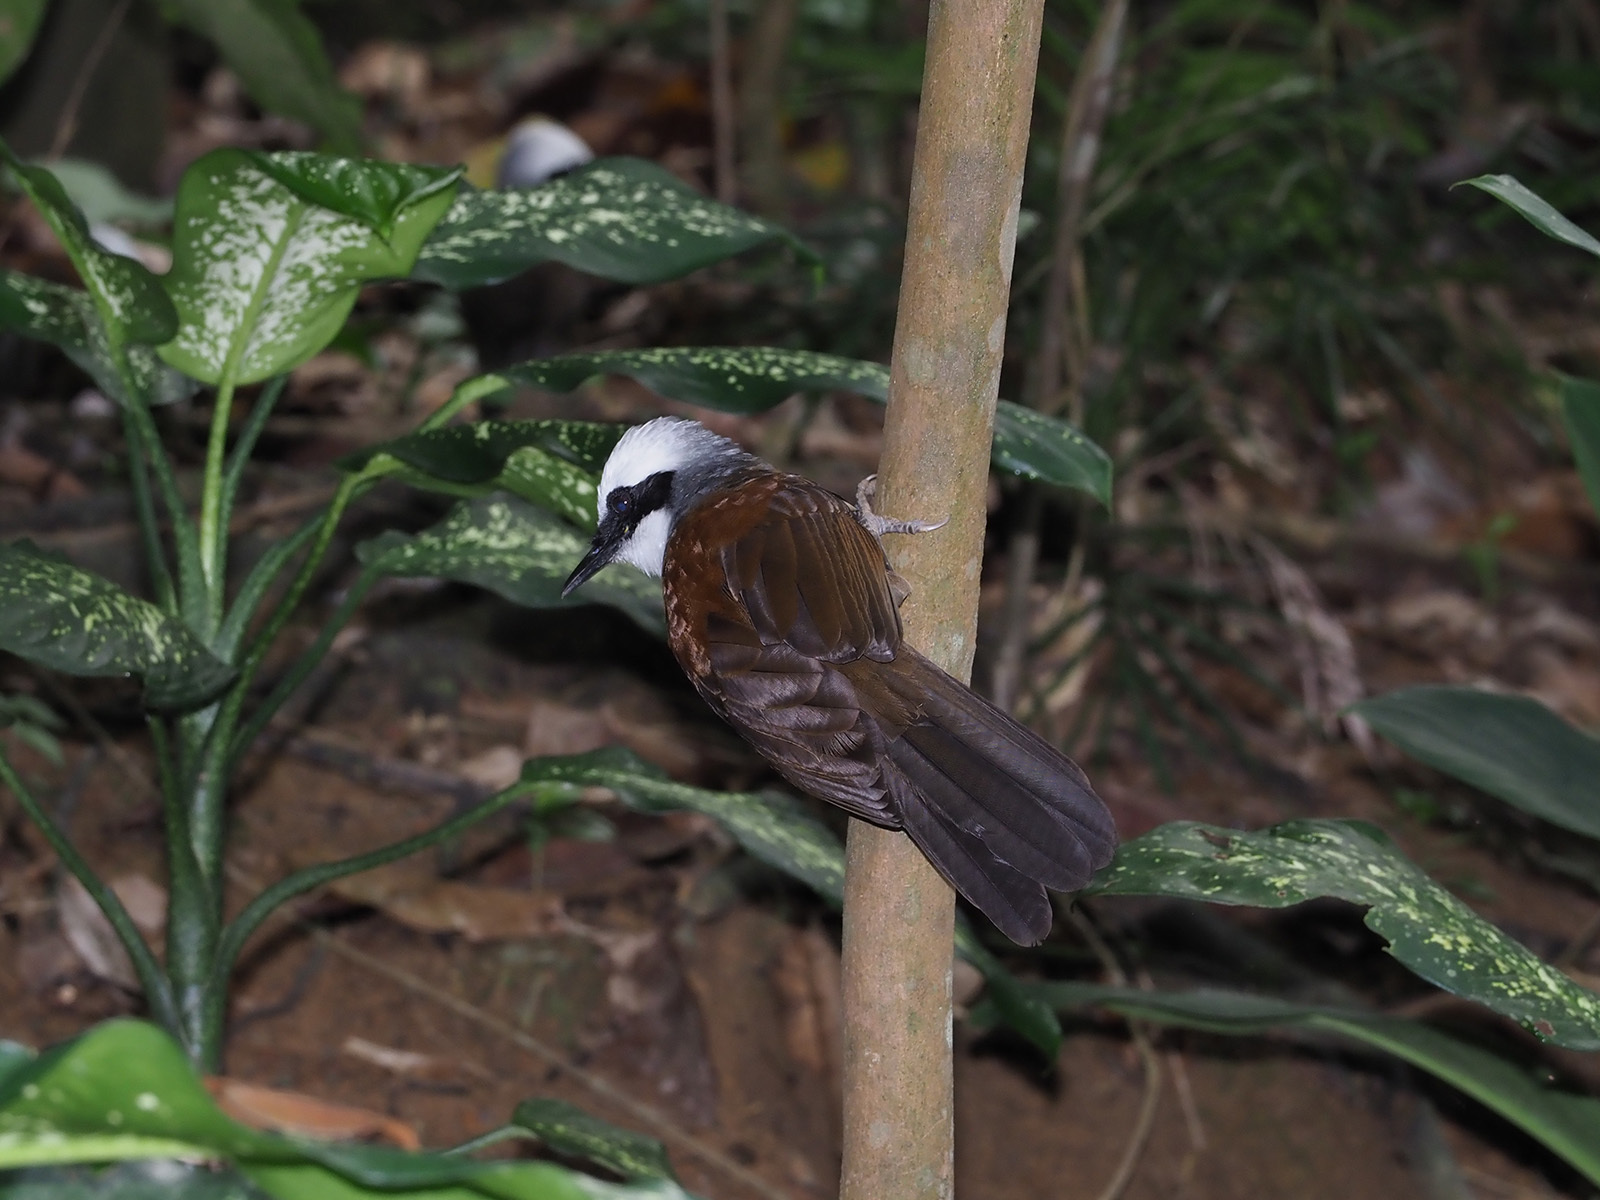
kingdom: Animalia
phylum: Chordata
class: Aves
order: Passeriformes
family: Leiothrichidae
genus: Garrulax
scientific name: Garrulax leucolophus
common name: White-crested laughingthrush
